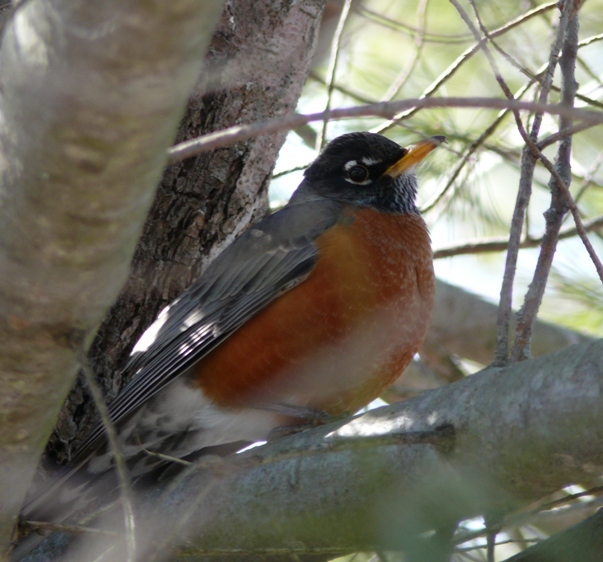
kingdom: Animalia
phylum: Chordata
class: Aves
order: Passeriformes
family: Turdidae
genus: Turdus
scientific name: Turdus migratorius
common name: American robin
